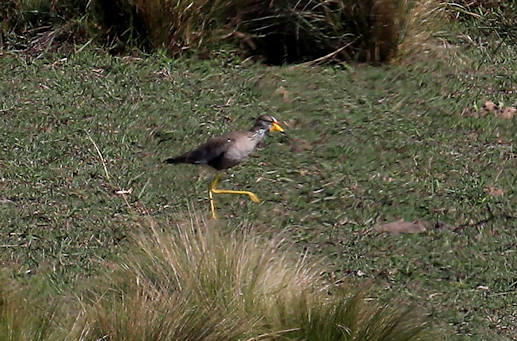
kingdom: Animalia
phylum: Chordata
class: Aves
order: Charadriiformes
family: Charadriidae
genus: Vanellus
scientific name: Vanellus senegallus
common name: African wattled lapwing
